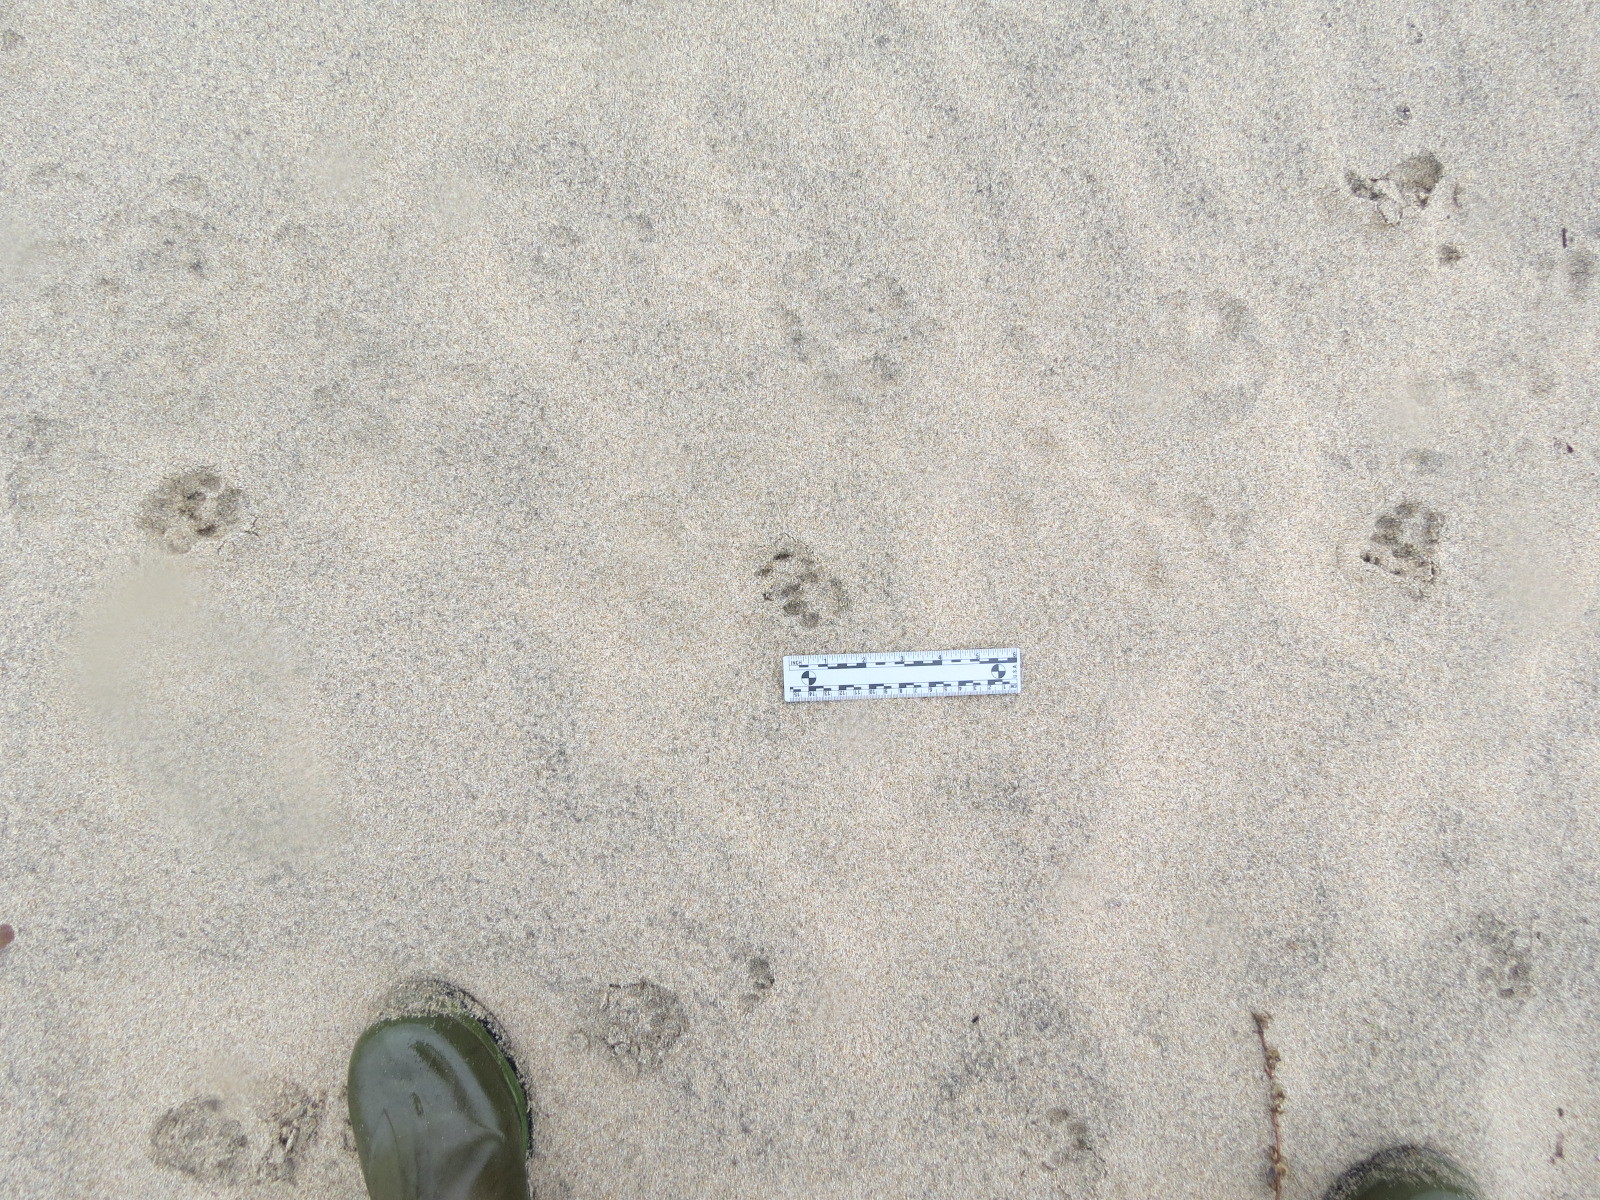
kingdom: Animalia
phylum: Chordata
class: Mammalia
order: Carnivora
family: Felidae
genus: Lynx
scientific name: Lynx rufus
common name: Bobcat
